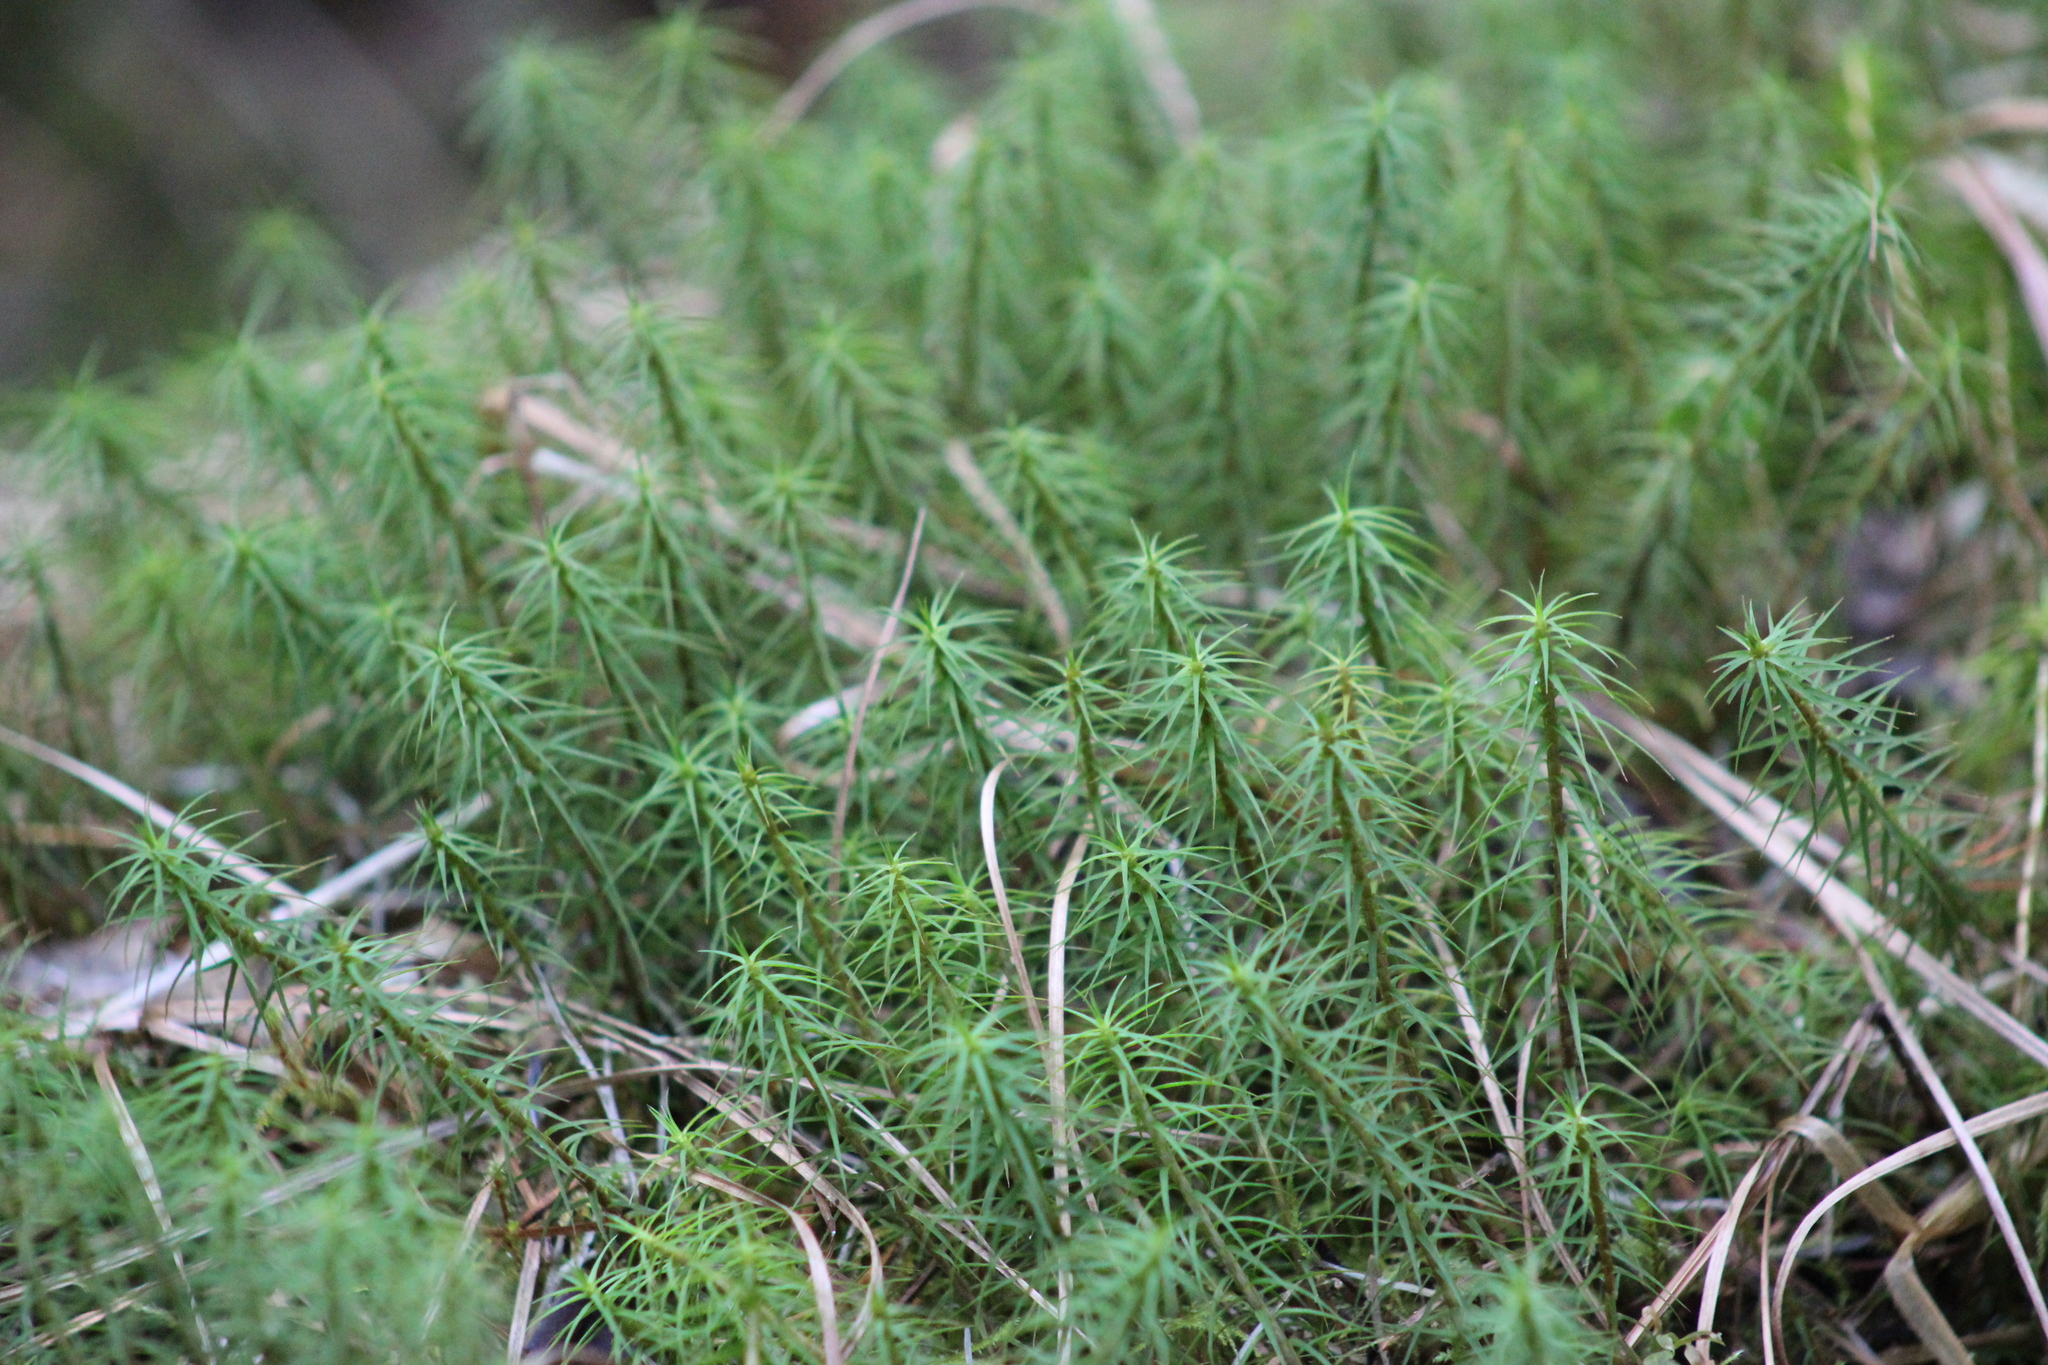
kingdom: Plantae
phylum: Bryophyta
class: Polytrichopsida
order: Polytrichales
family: Polytrichaceae
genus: Polytrichum
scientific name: Polytrichum commune
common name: Common haircap
